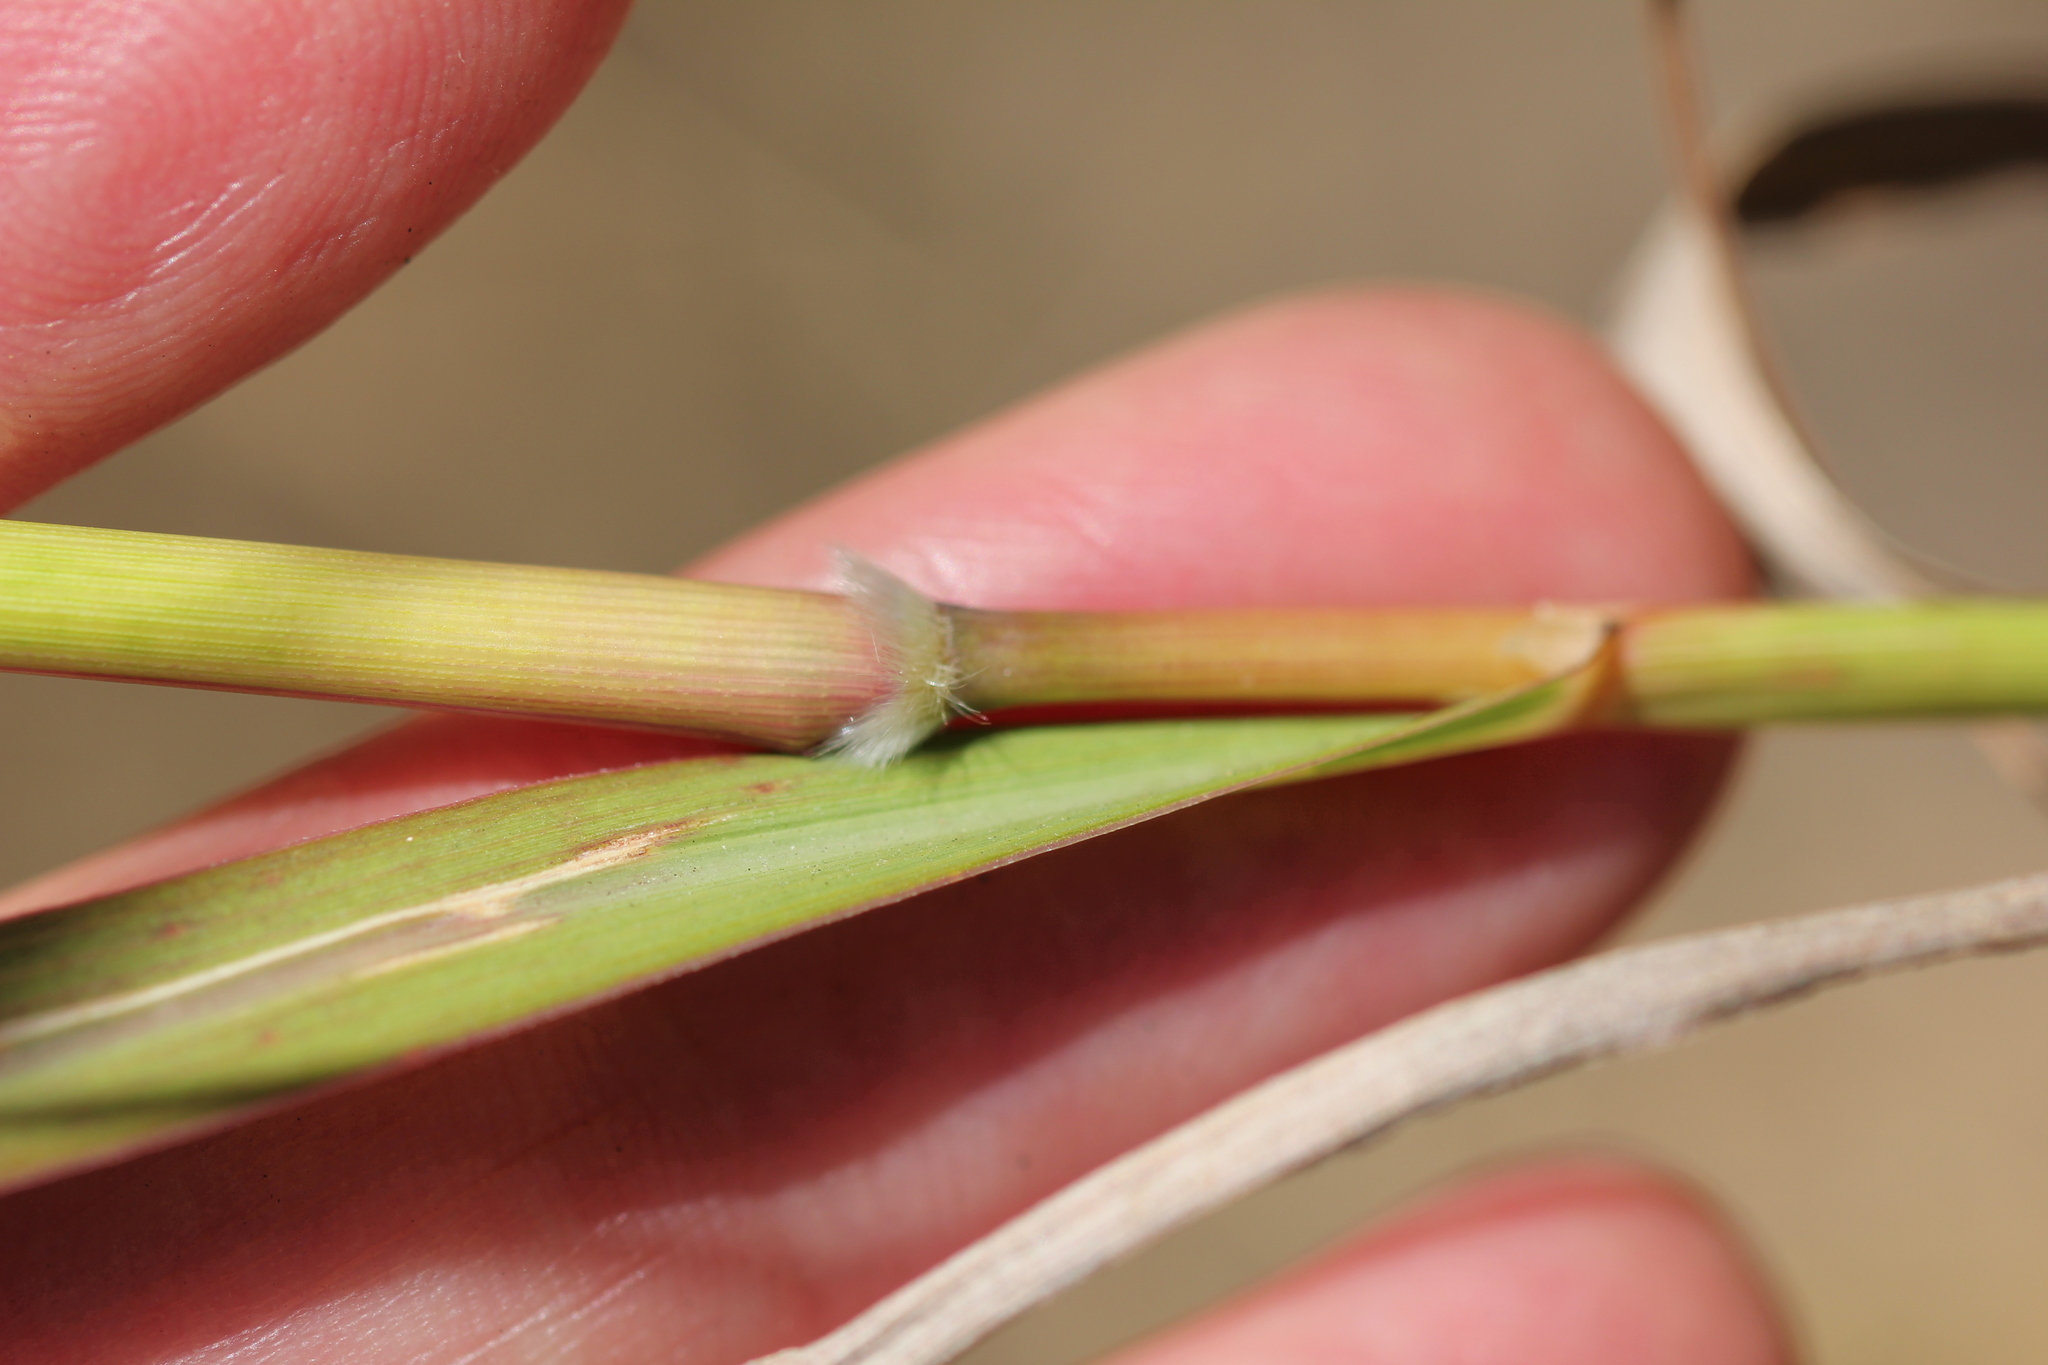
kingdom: Plantae
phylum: Tracheophyta
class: Liliopsida
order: Poales
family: Poaceae
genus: Bothriochloa
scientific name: Bothriochloa barbinodis
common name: Cane bluestem
